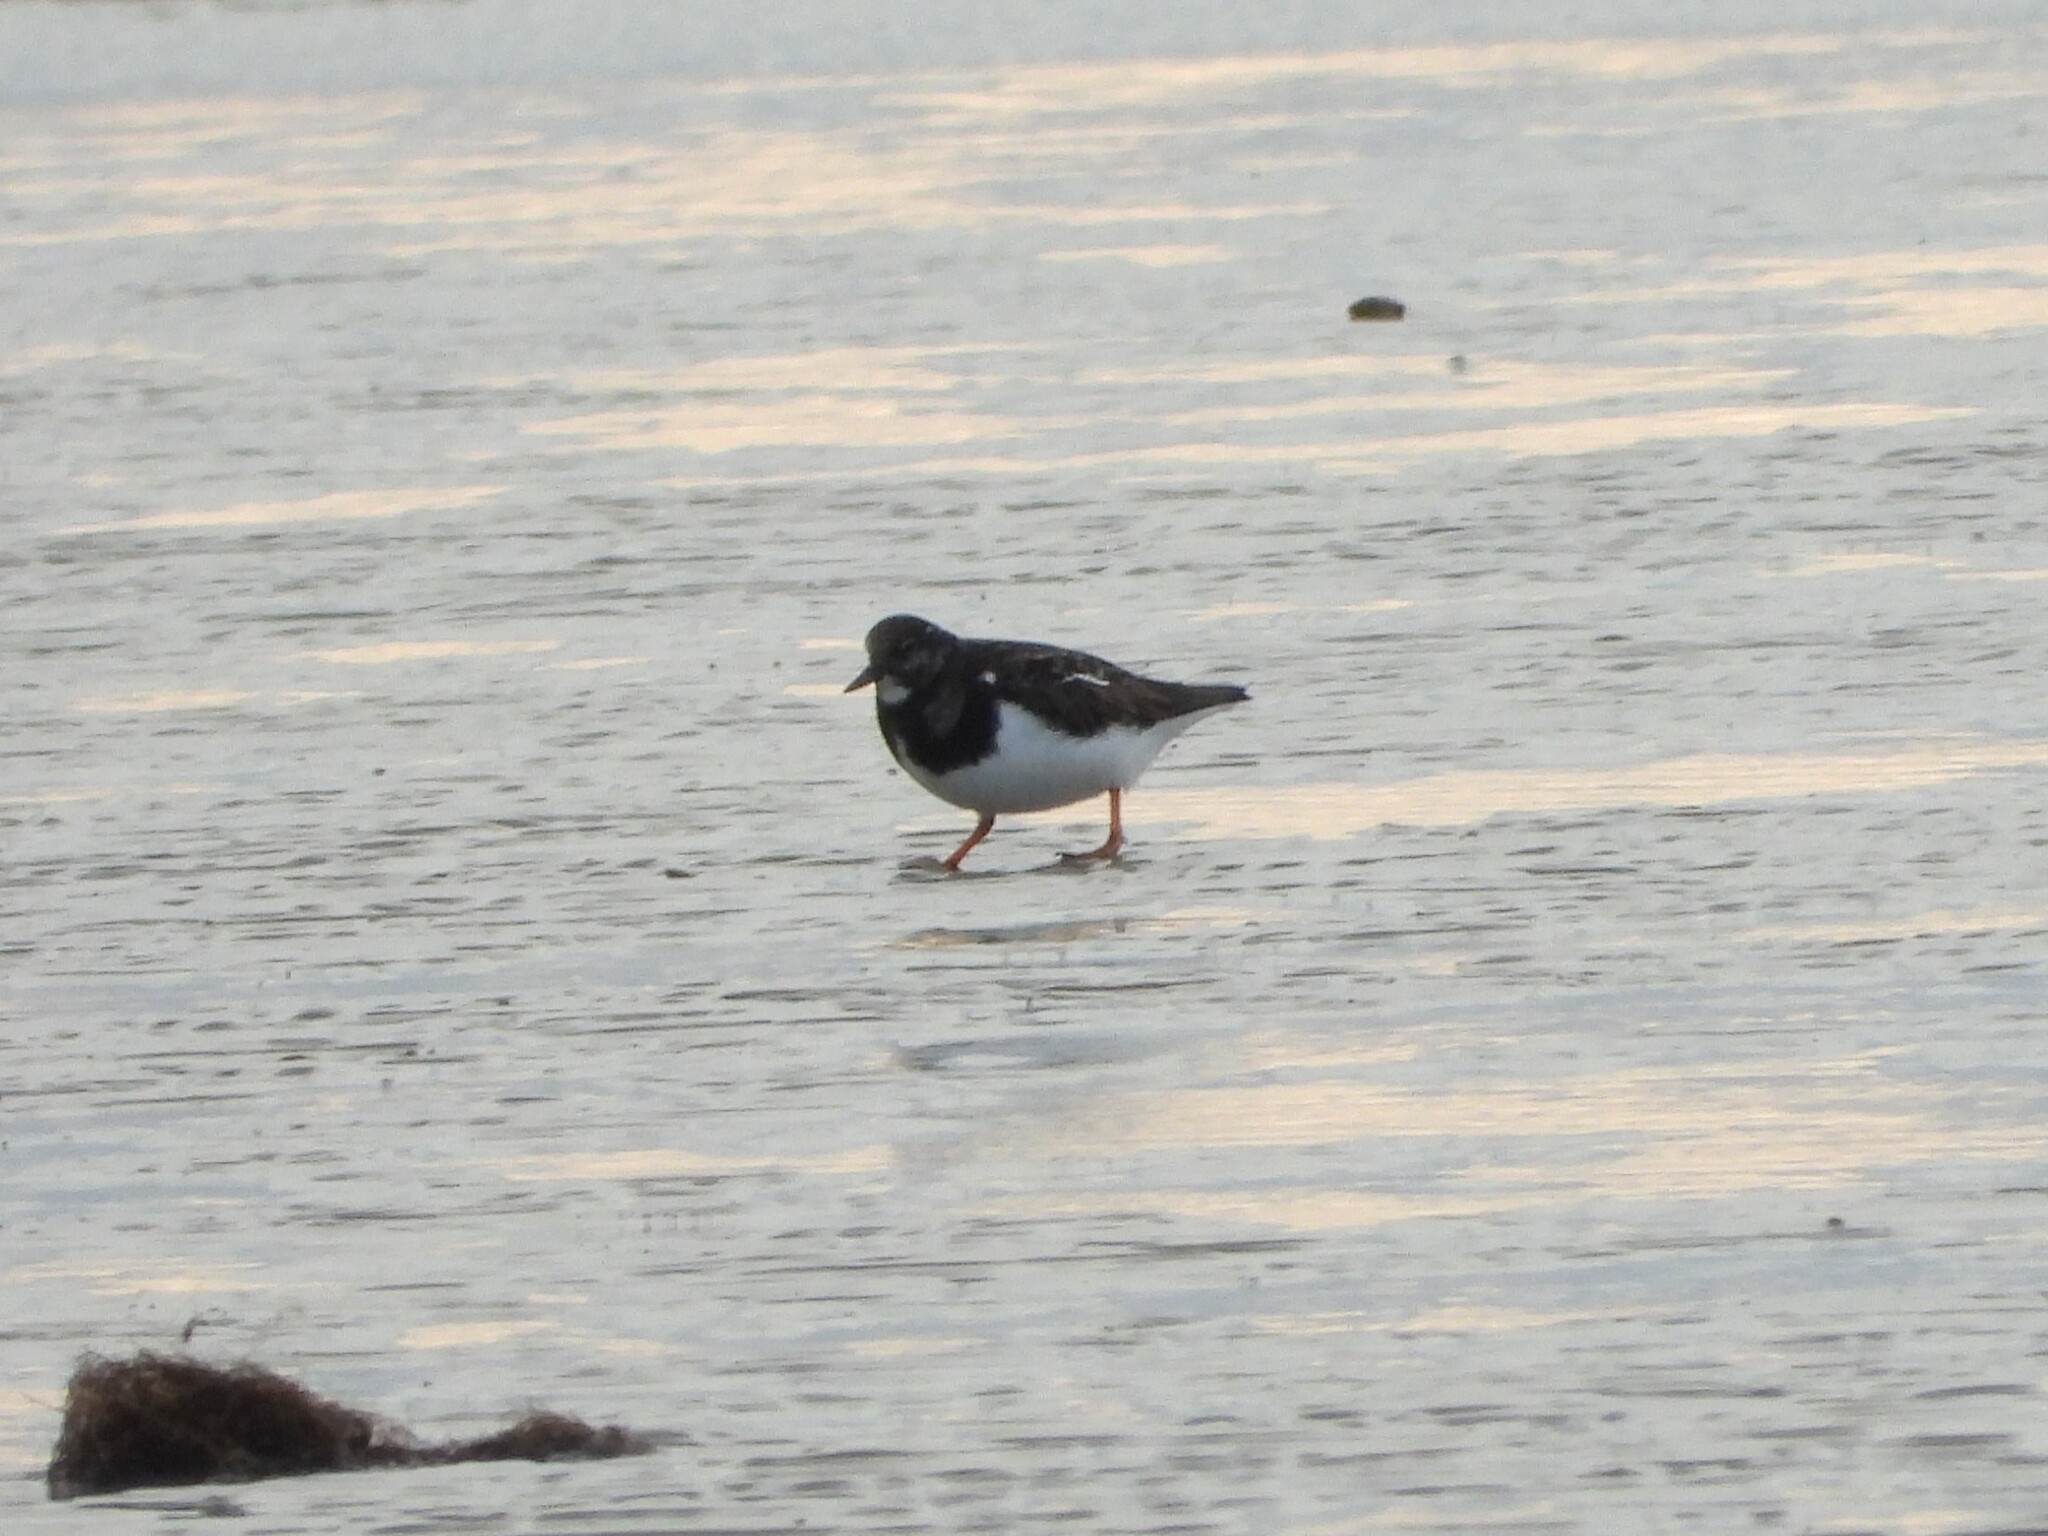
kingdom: Animalia
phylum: Chordata
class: Aves
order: Charadriiformes
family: Scolopacidae
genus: Arenaria
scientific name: Arenaria interpres
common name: Ruddy turnstone
